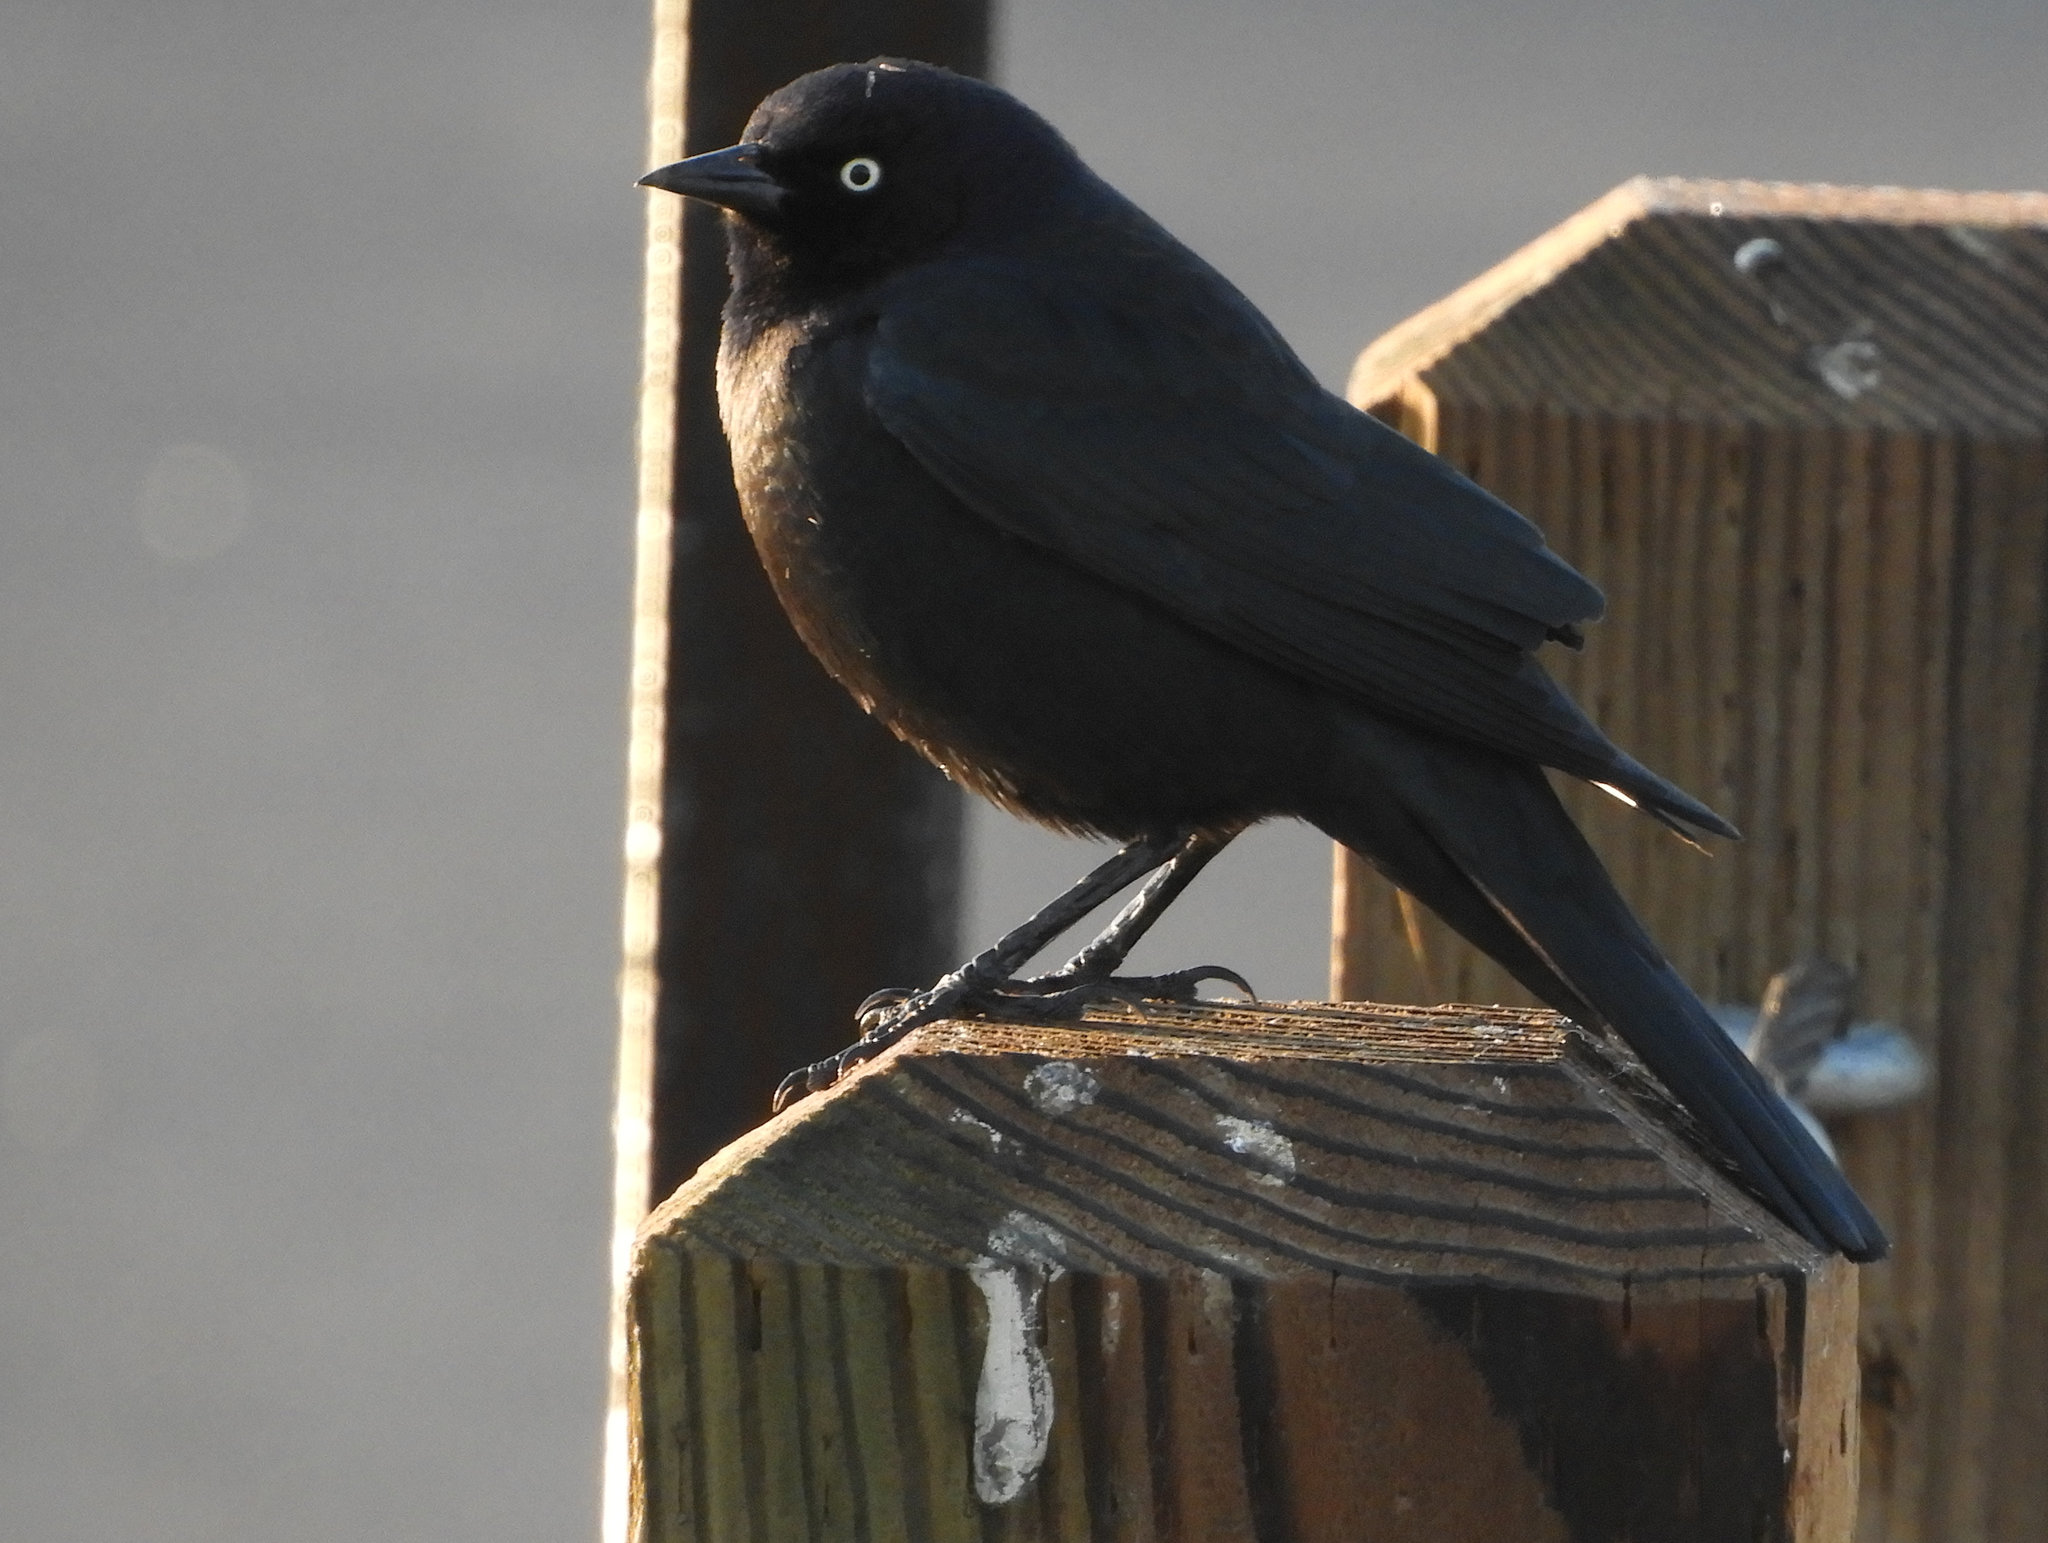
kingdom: Animalia
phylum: Chordata
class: Aves
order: Passeriformes
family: Icteridae
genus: Euphagus
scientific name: Euphagus cyanocephalus
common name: Brewer's blackbird
